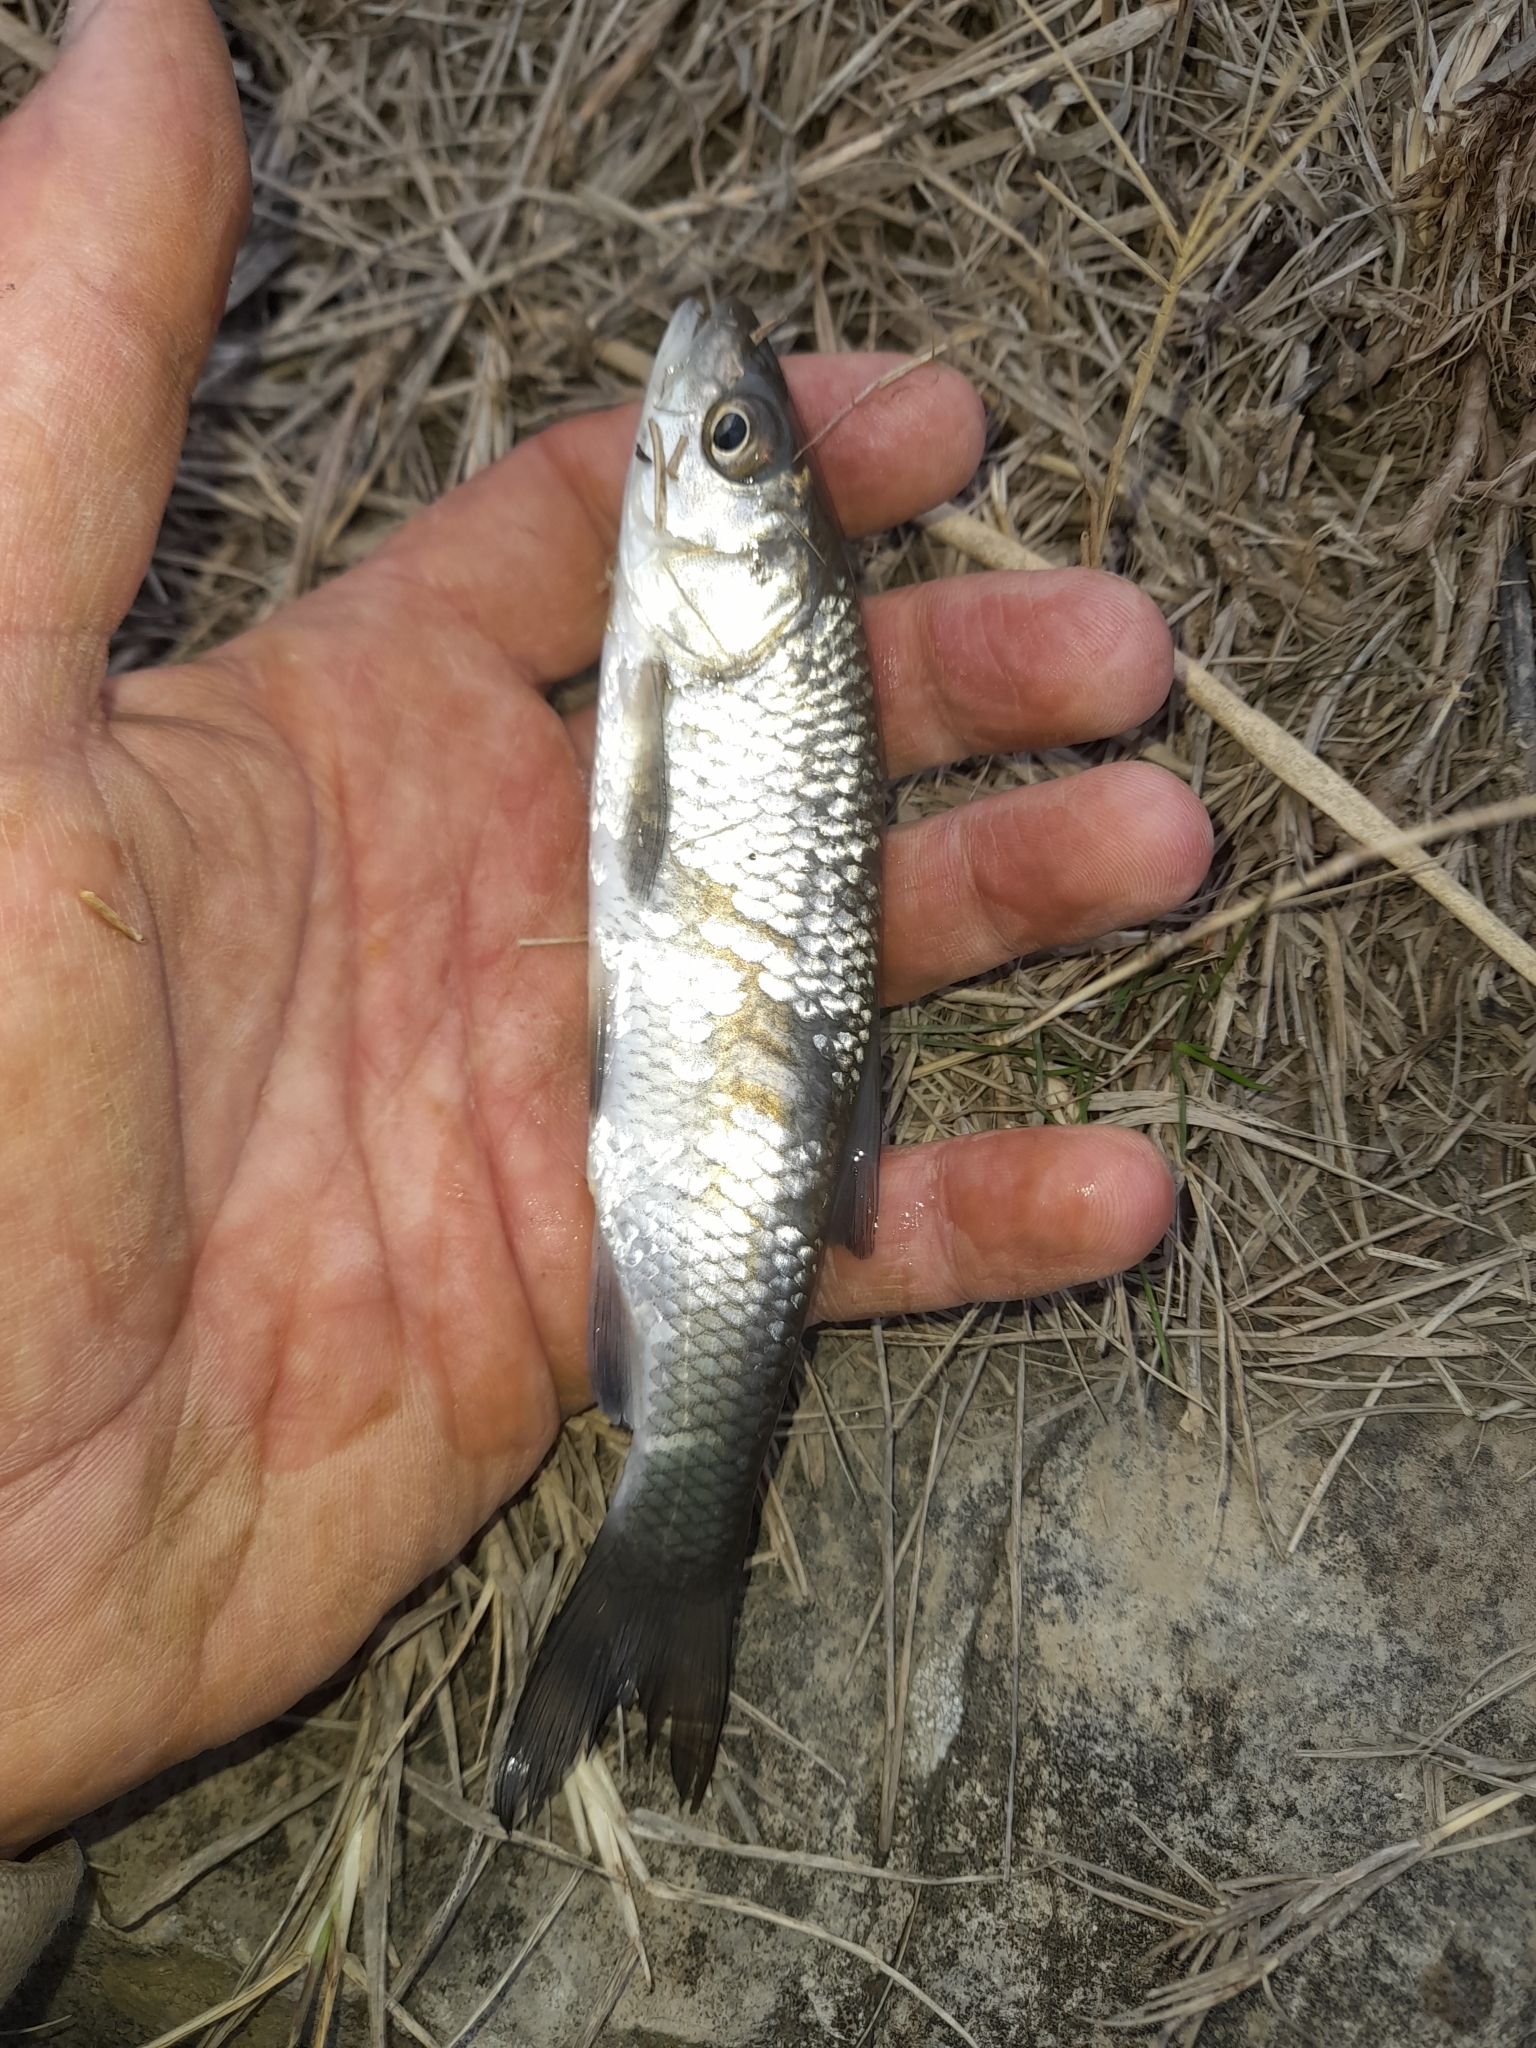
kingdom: Animalia
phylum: Chordata
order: Cypriniformes
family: Cyprinidae
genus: Squalius
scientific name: Squalius squalus
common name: Italian chub
